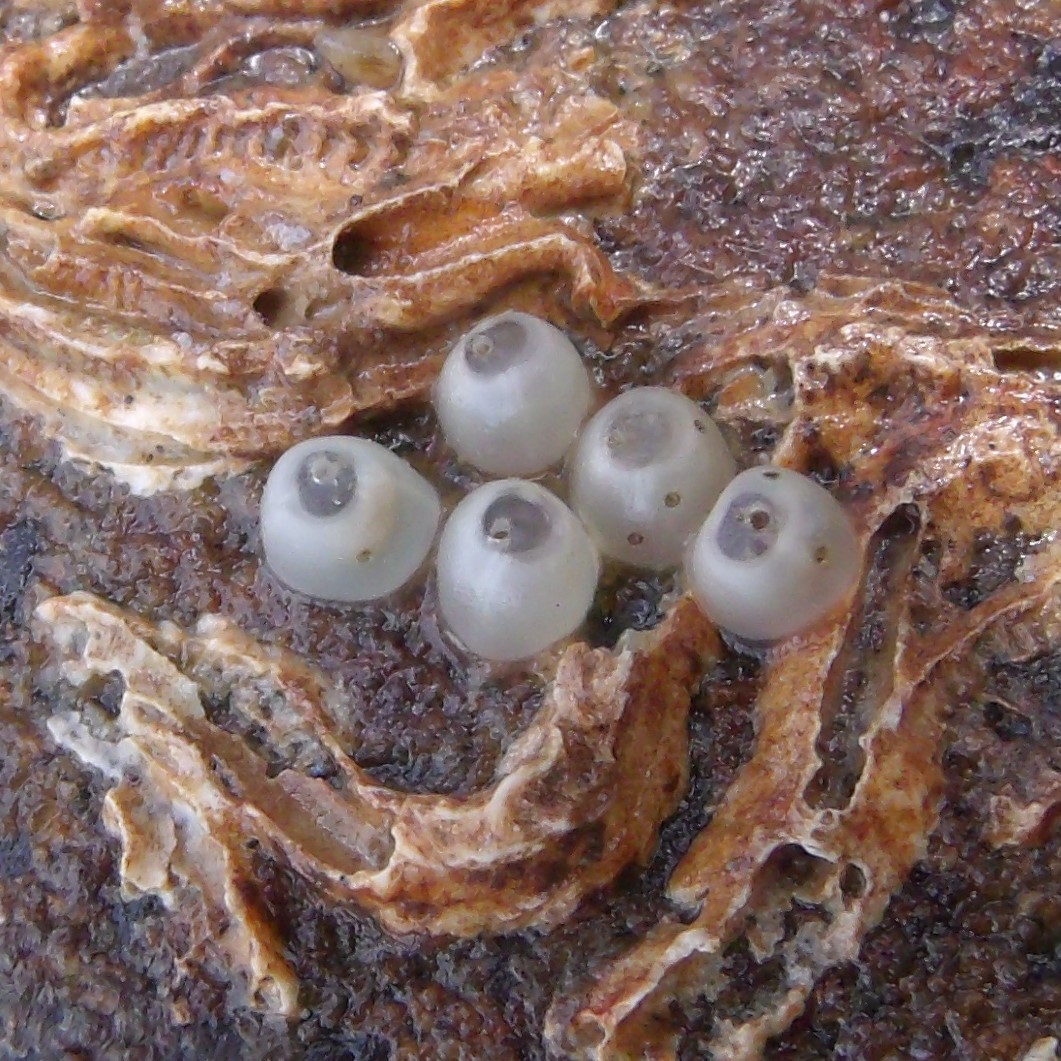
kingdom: Animalia
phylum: Mollusca
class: Gastropoda
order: Neogastropoda
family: Muricidae
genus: Haustrum
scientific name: Haustrum scobina
